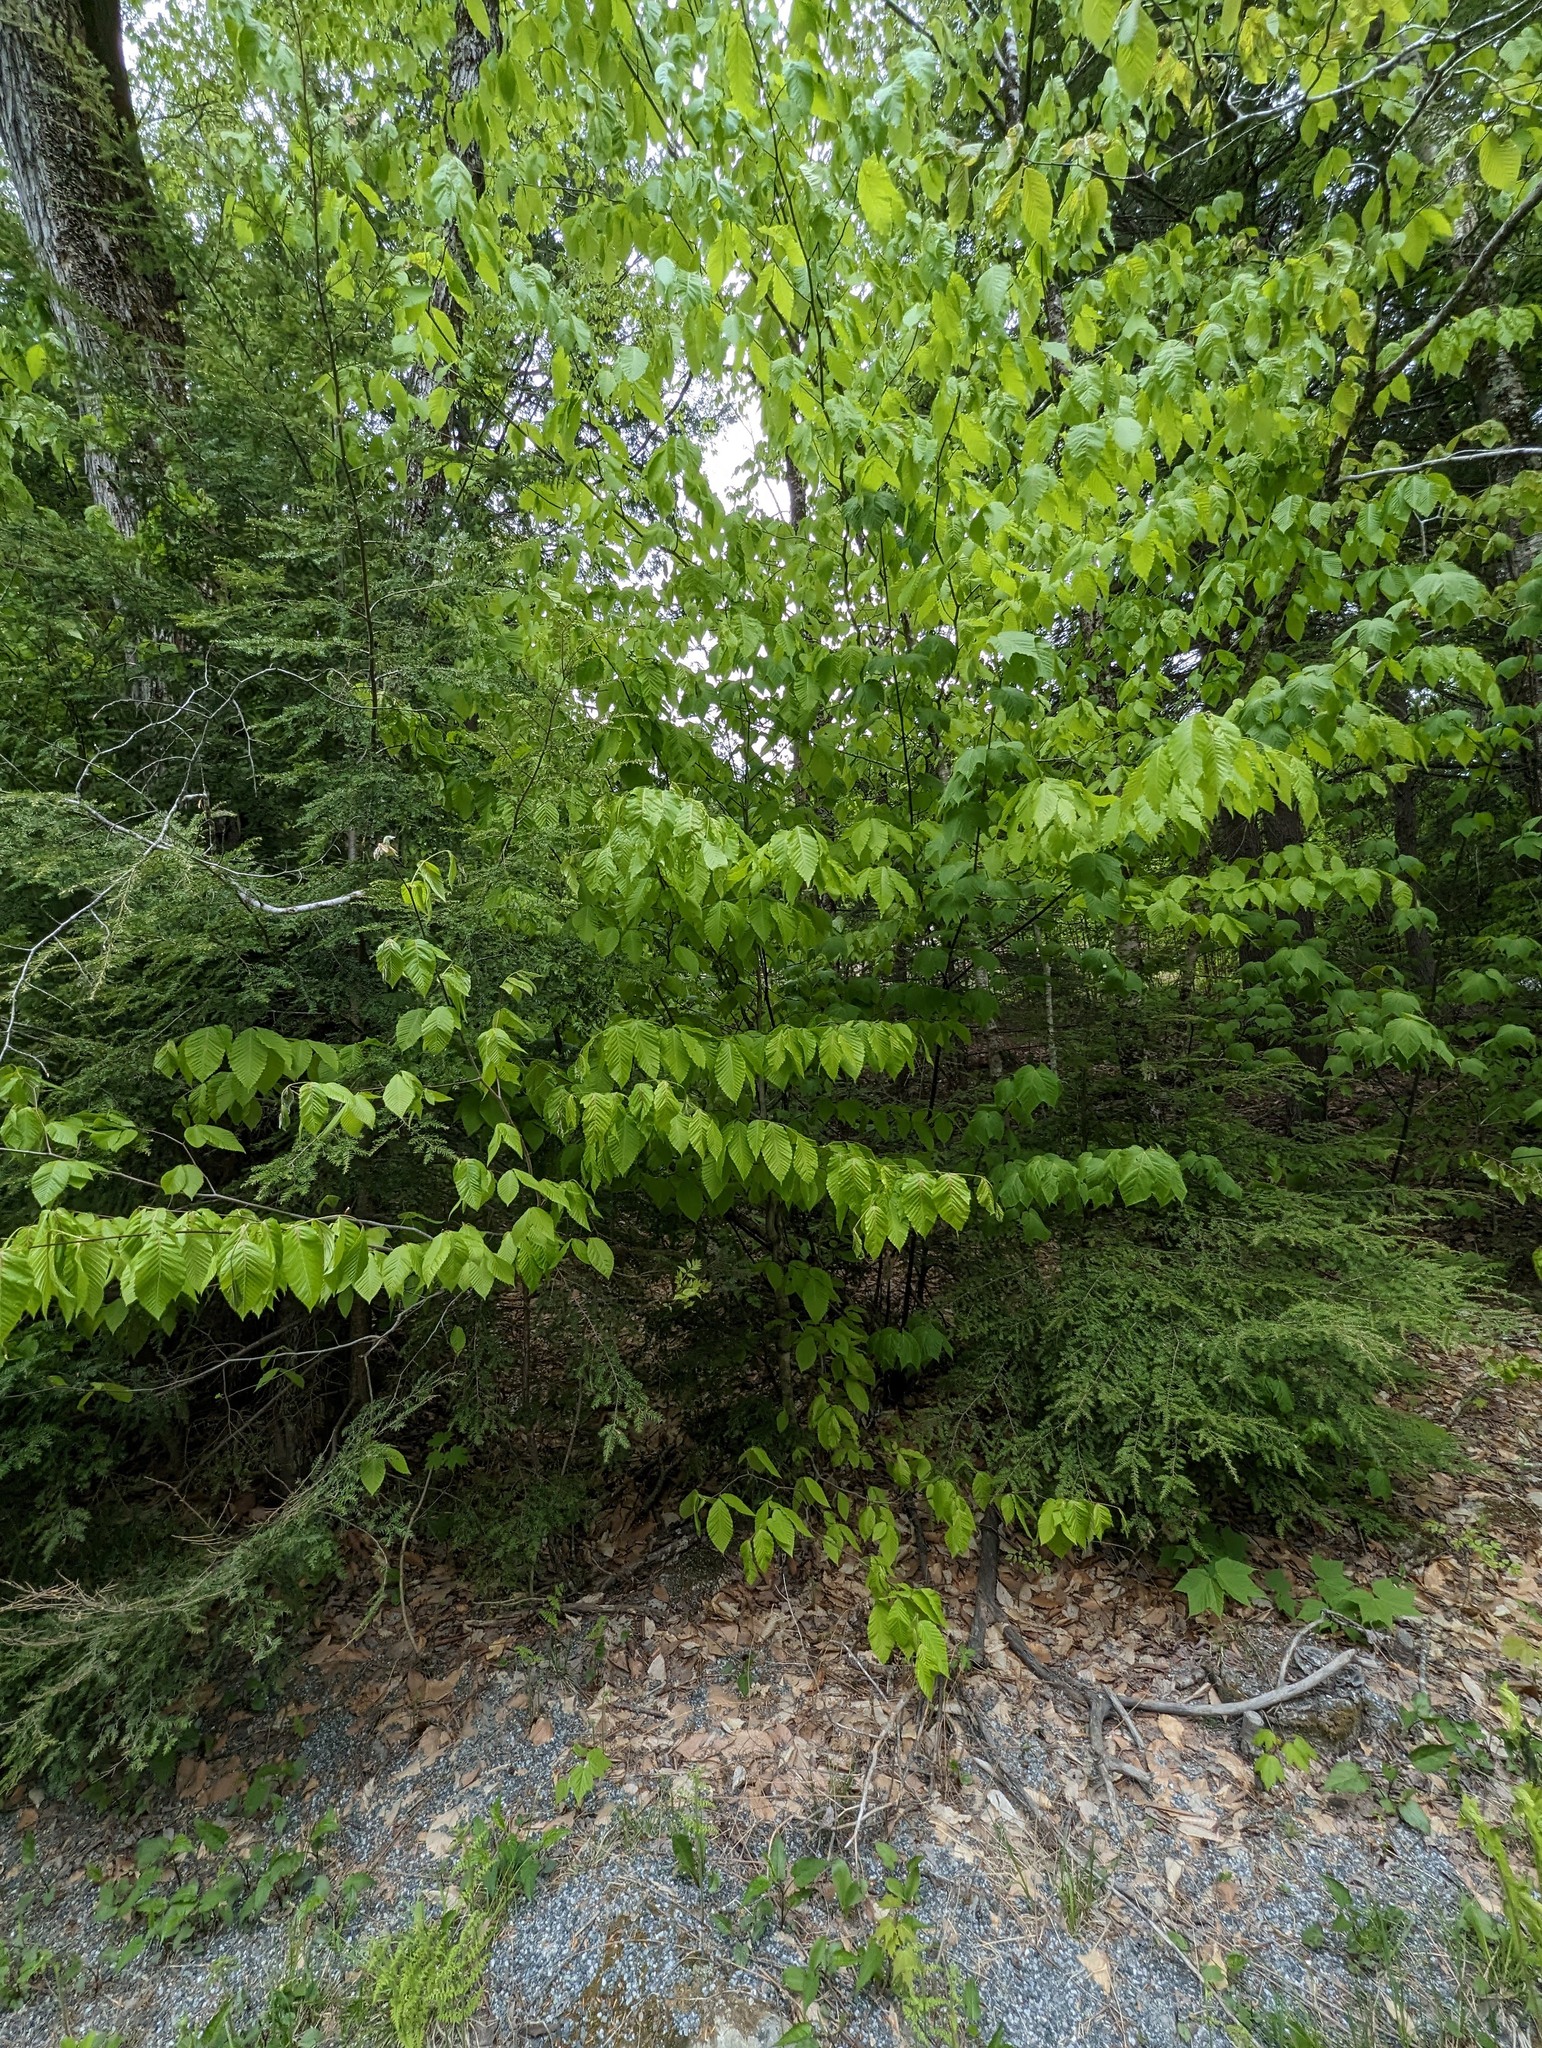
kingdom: Plantae
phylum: Tracheophyta
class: Magnoliopsida
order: Fagales
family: Fagaceae
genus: Fagus
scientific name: Fagus grandifolia
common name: American beech
